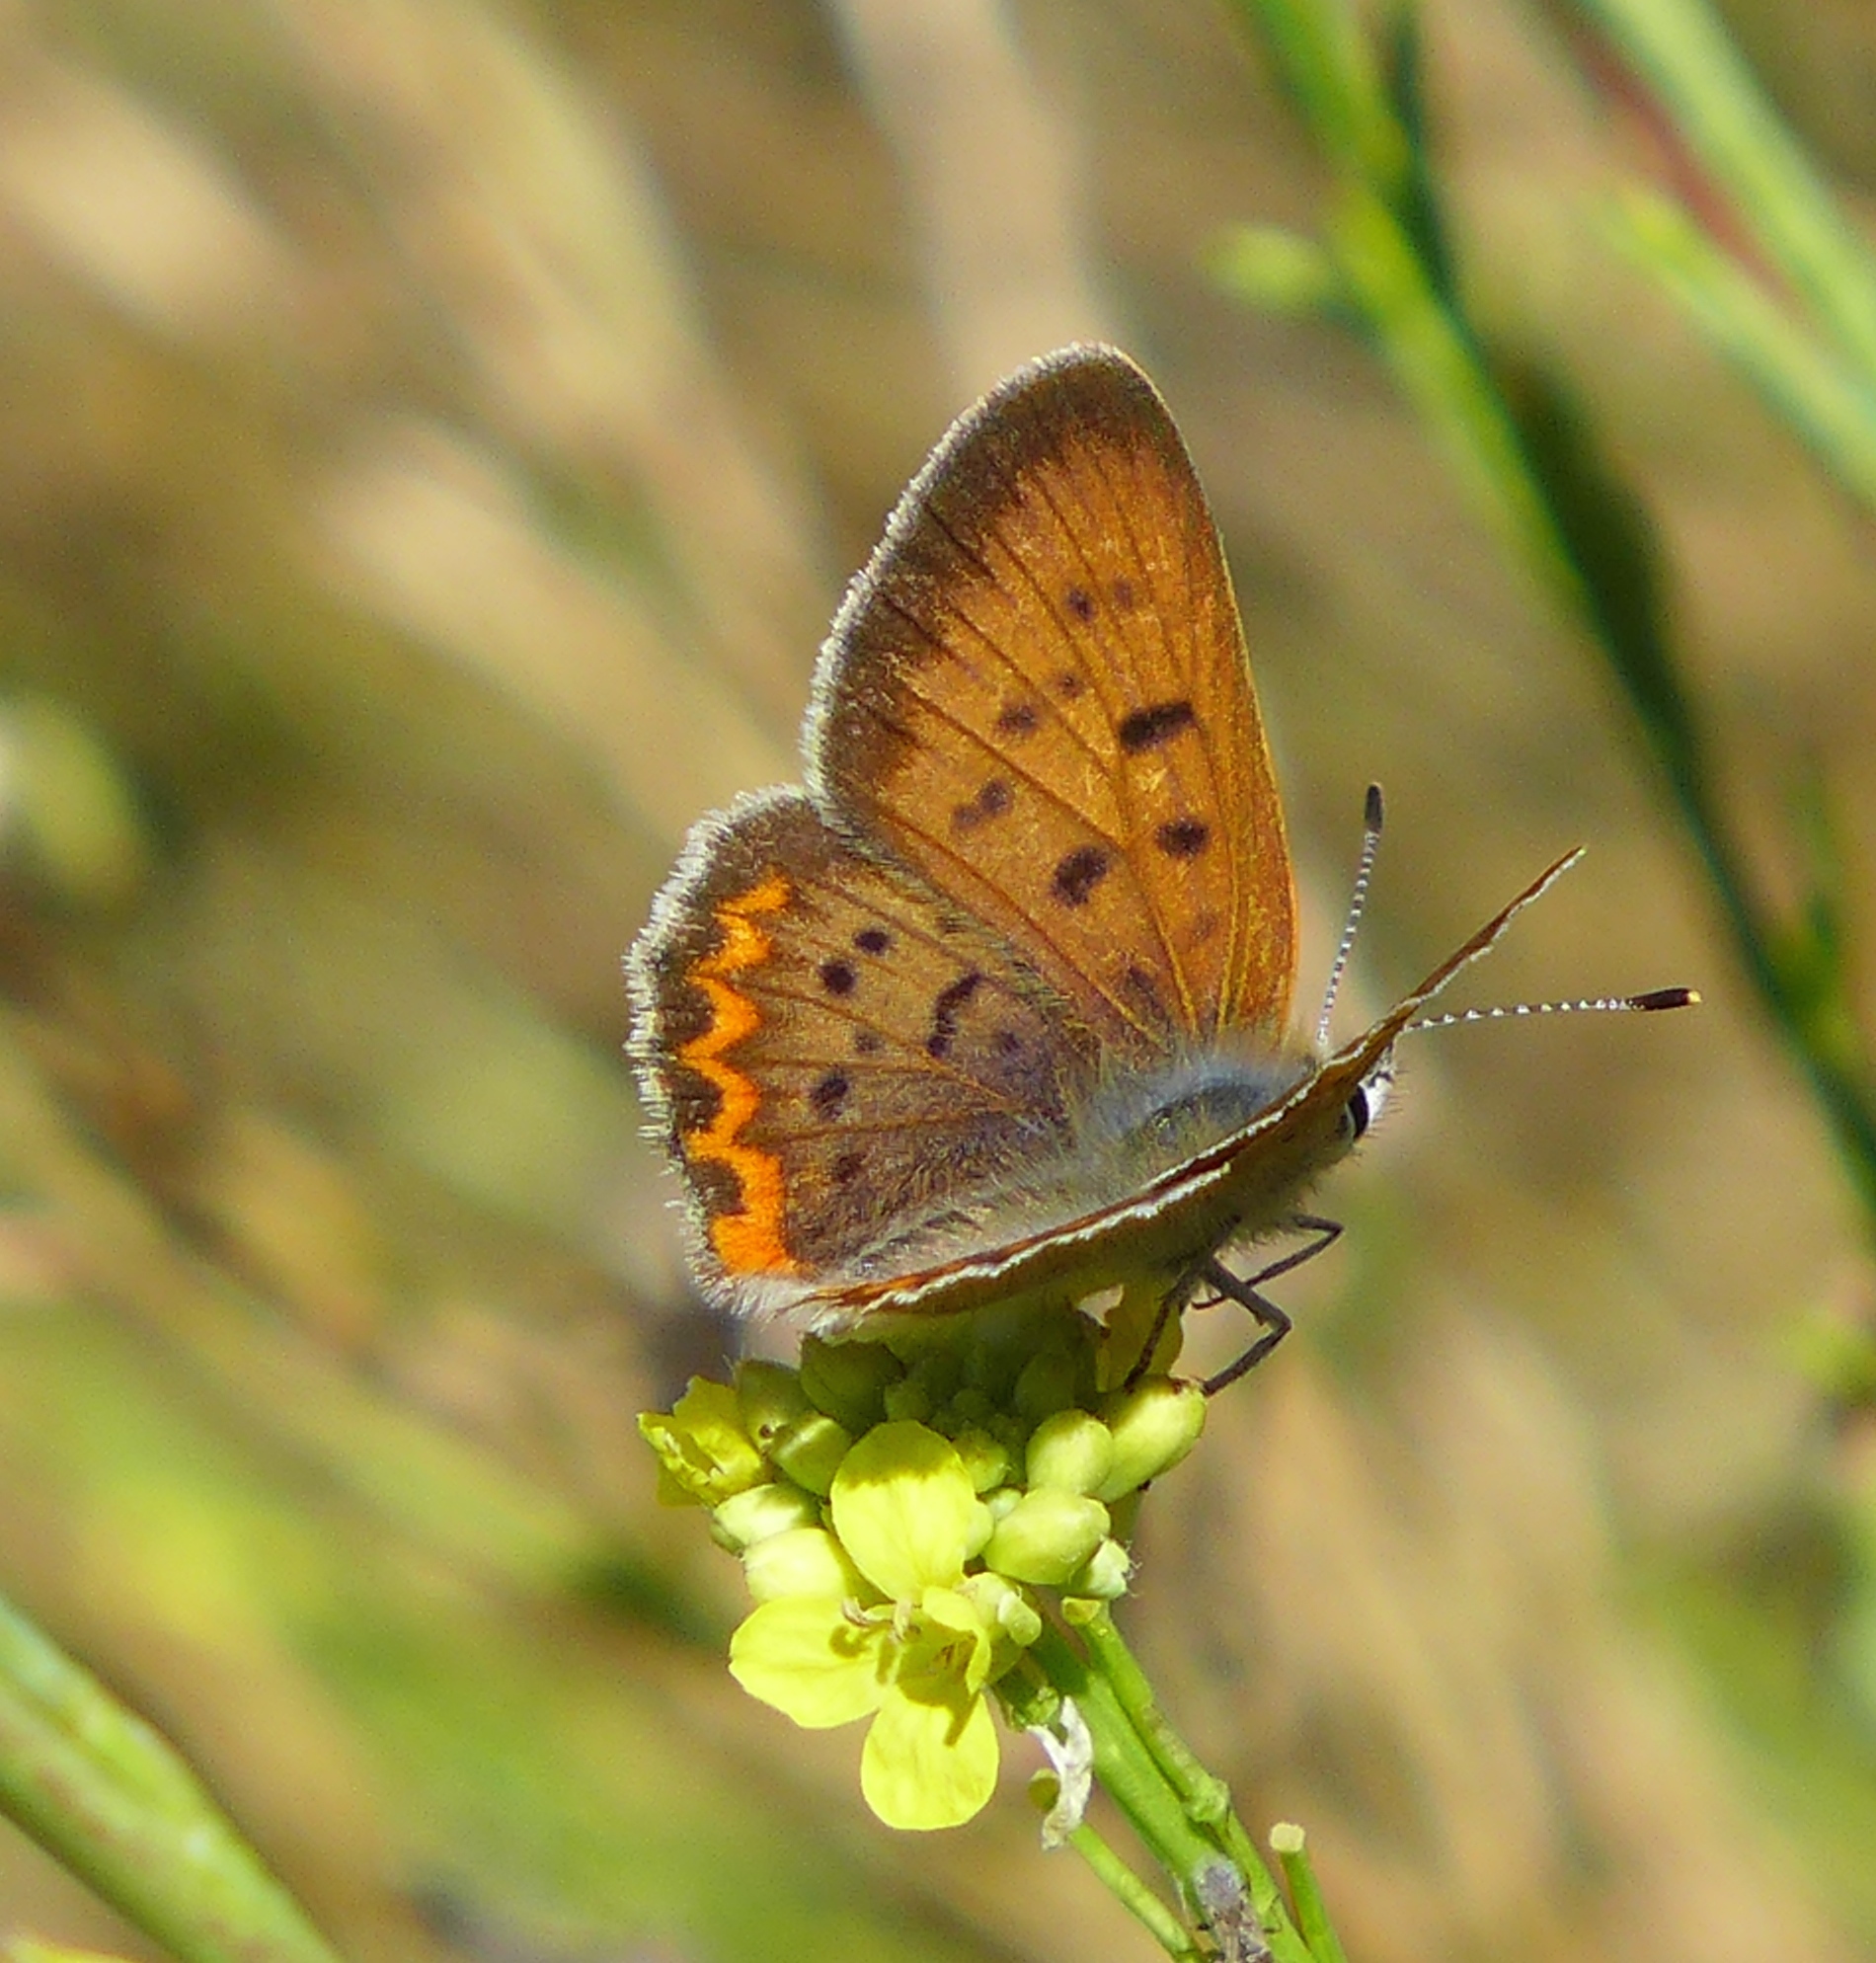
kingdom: Animalia
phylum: Arthropoda
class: Insecta
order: Lepidoptera
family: Lycaenidae
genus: Tharsalea
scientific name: Tharsalea helloides
